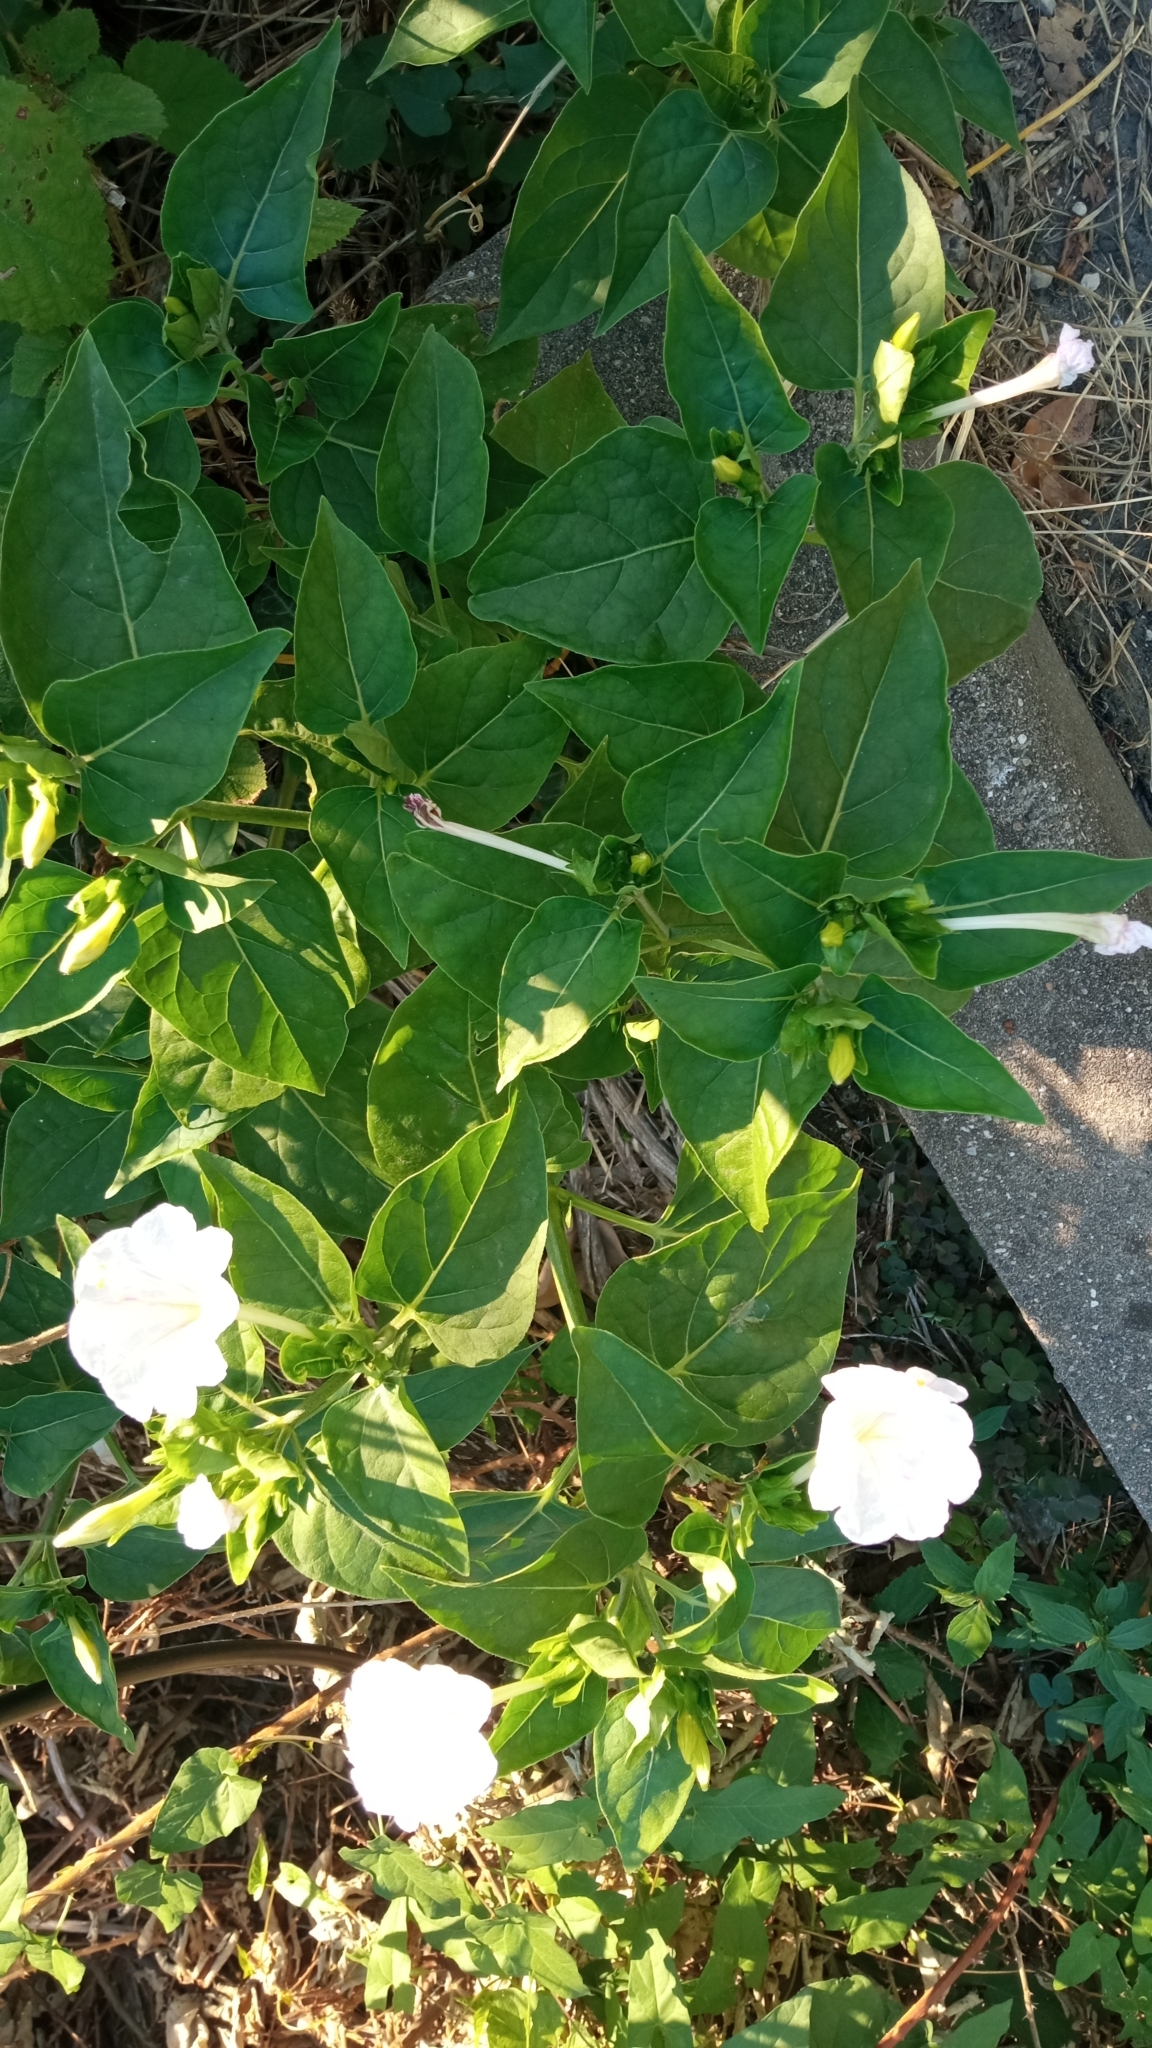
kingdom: Plantae
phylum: Tracheophyta
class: Magnoliopsida
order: Caryophyllales
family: Nyctaginaceae
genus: Mirabilis
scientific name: Mirabilis jalapa
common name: Marvel-of-peru
